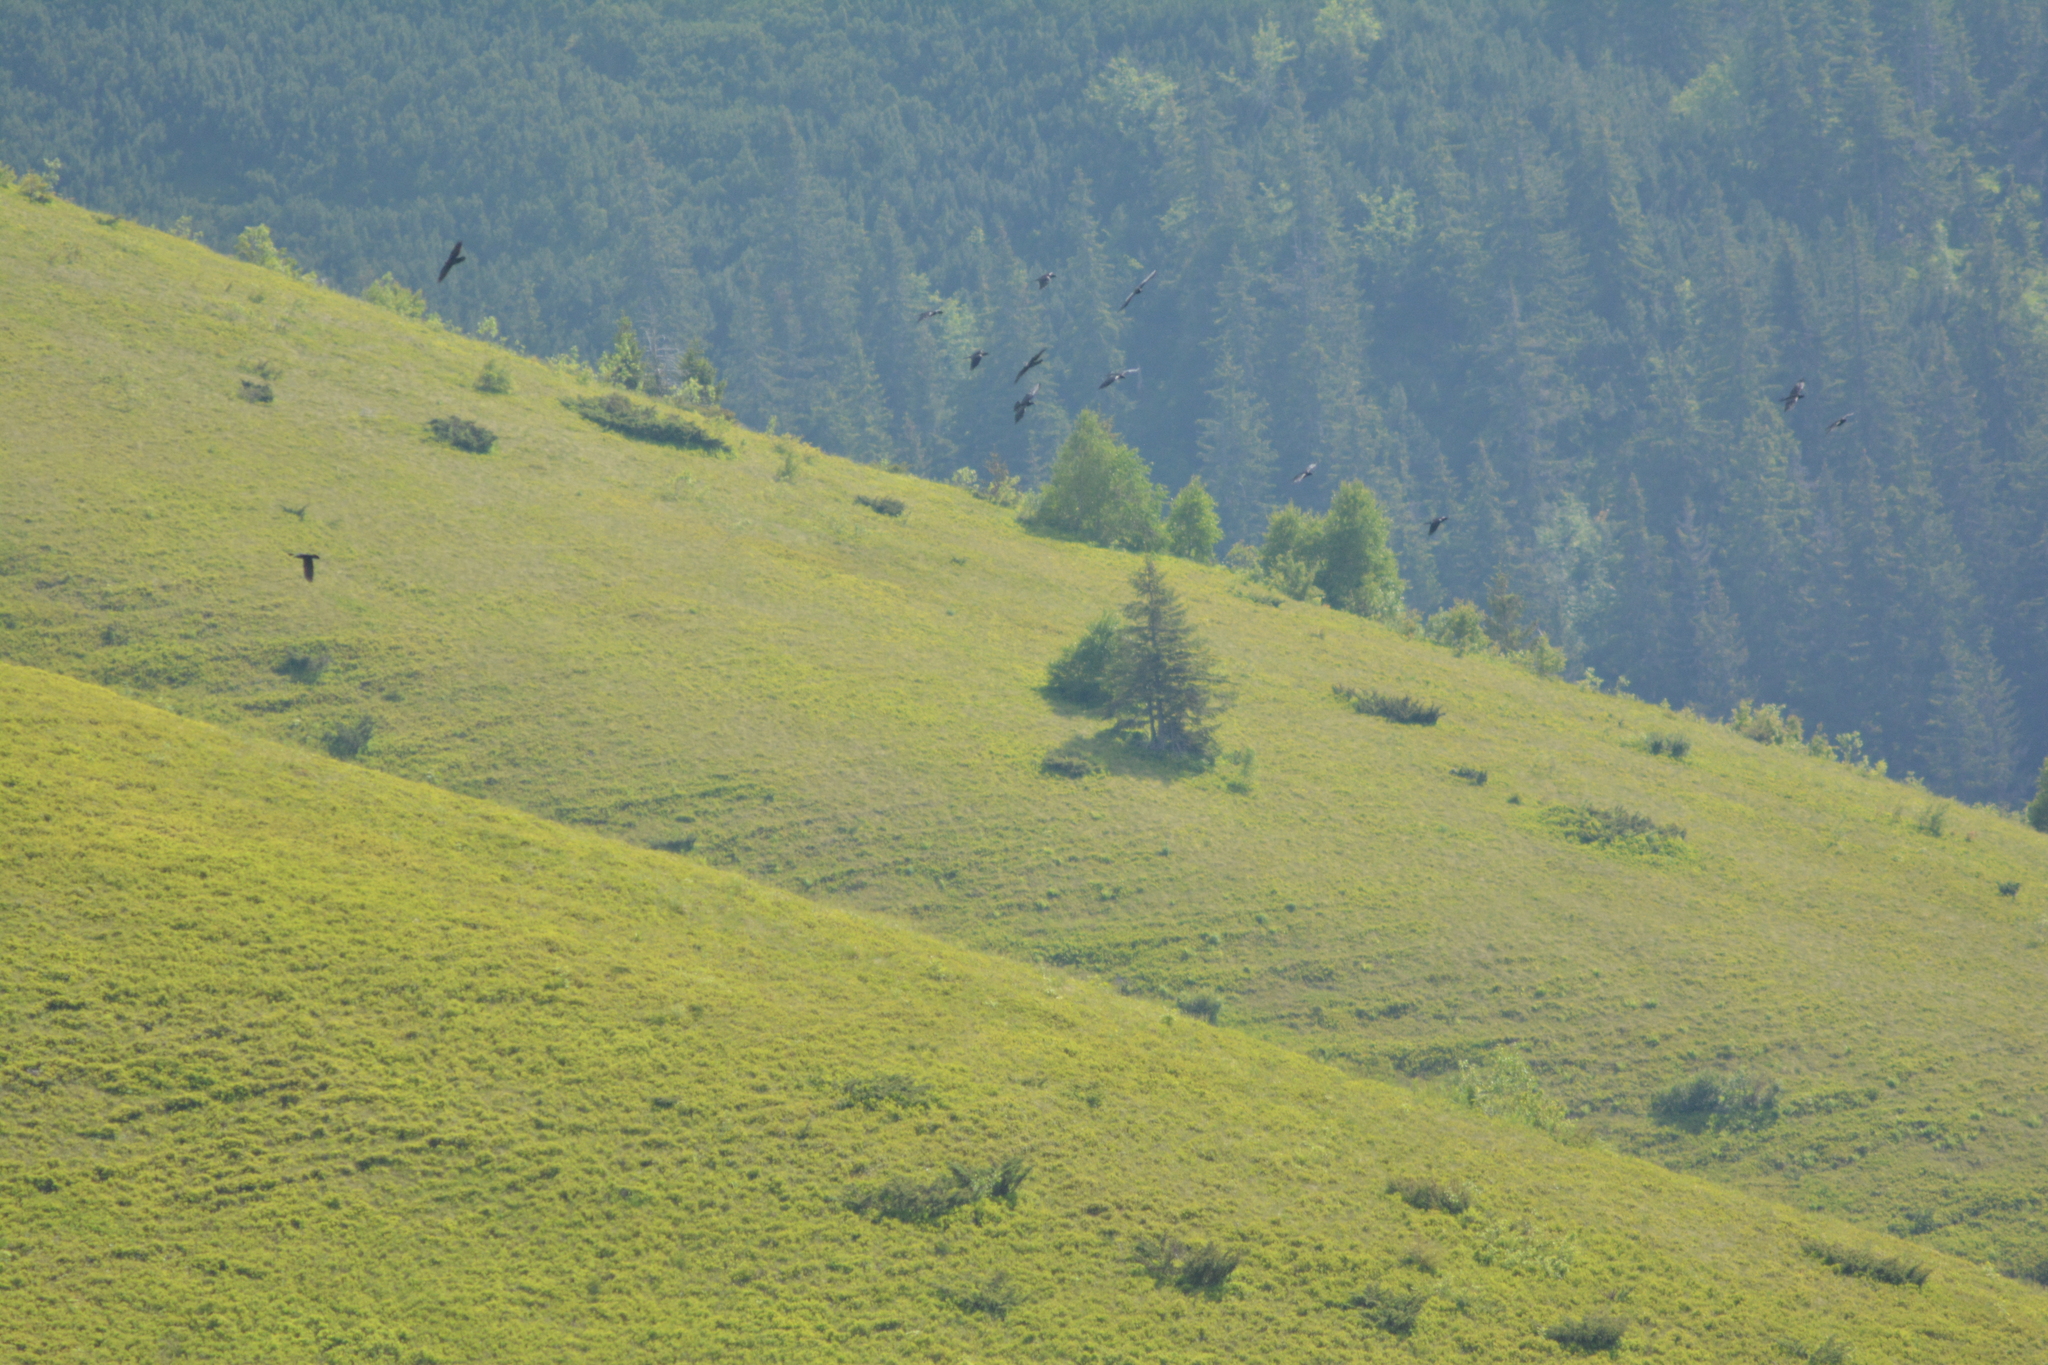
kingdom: Animalia
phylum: Chordata
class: Aves
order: Passeriformes
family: Corvidae
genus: Corvus
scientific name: Corvus corax
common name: Common raven
